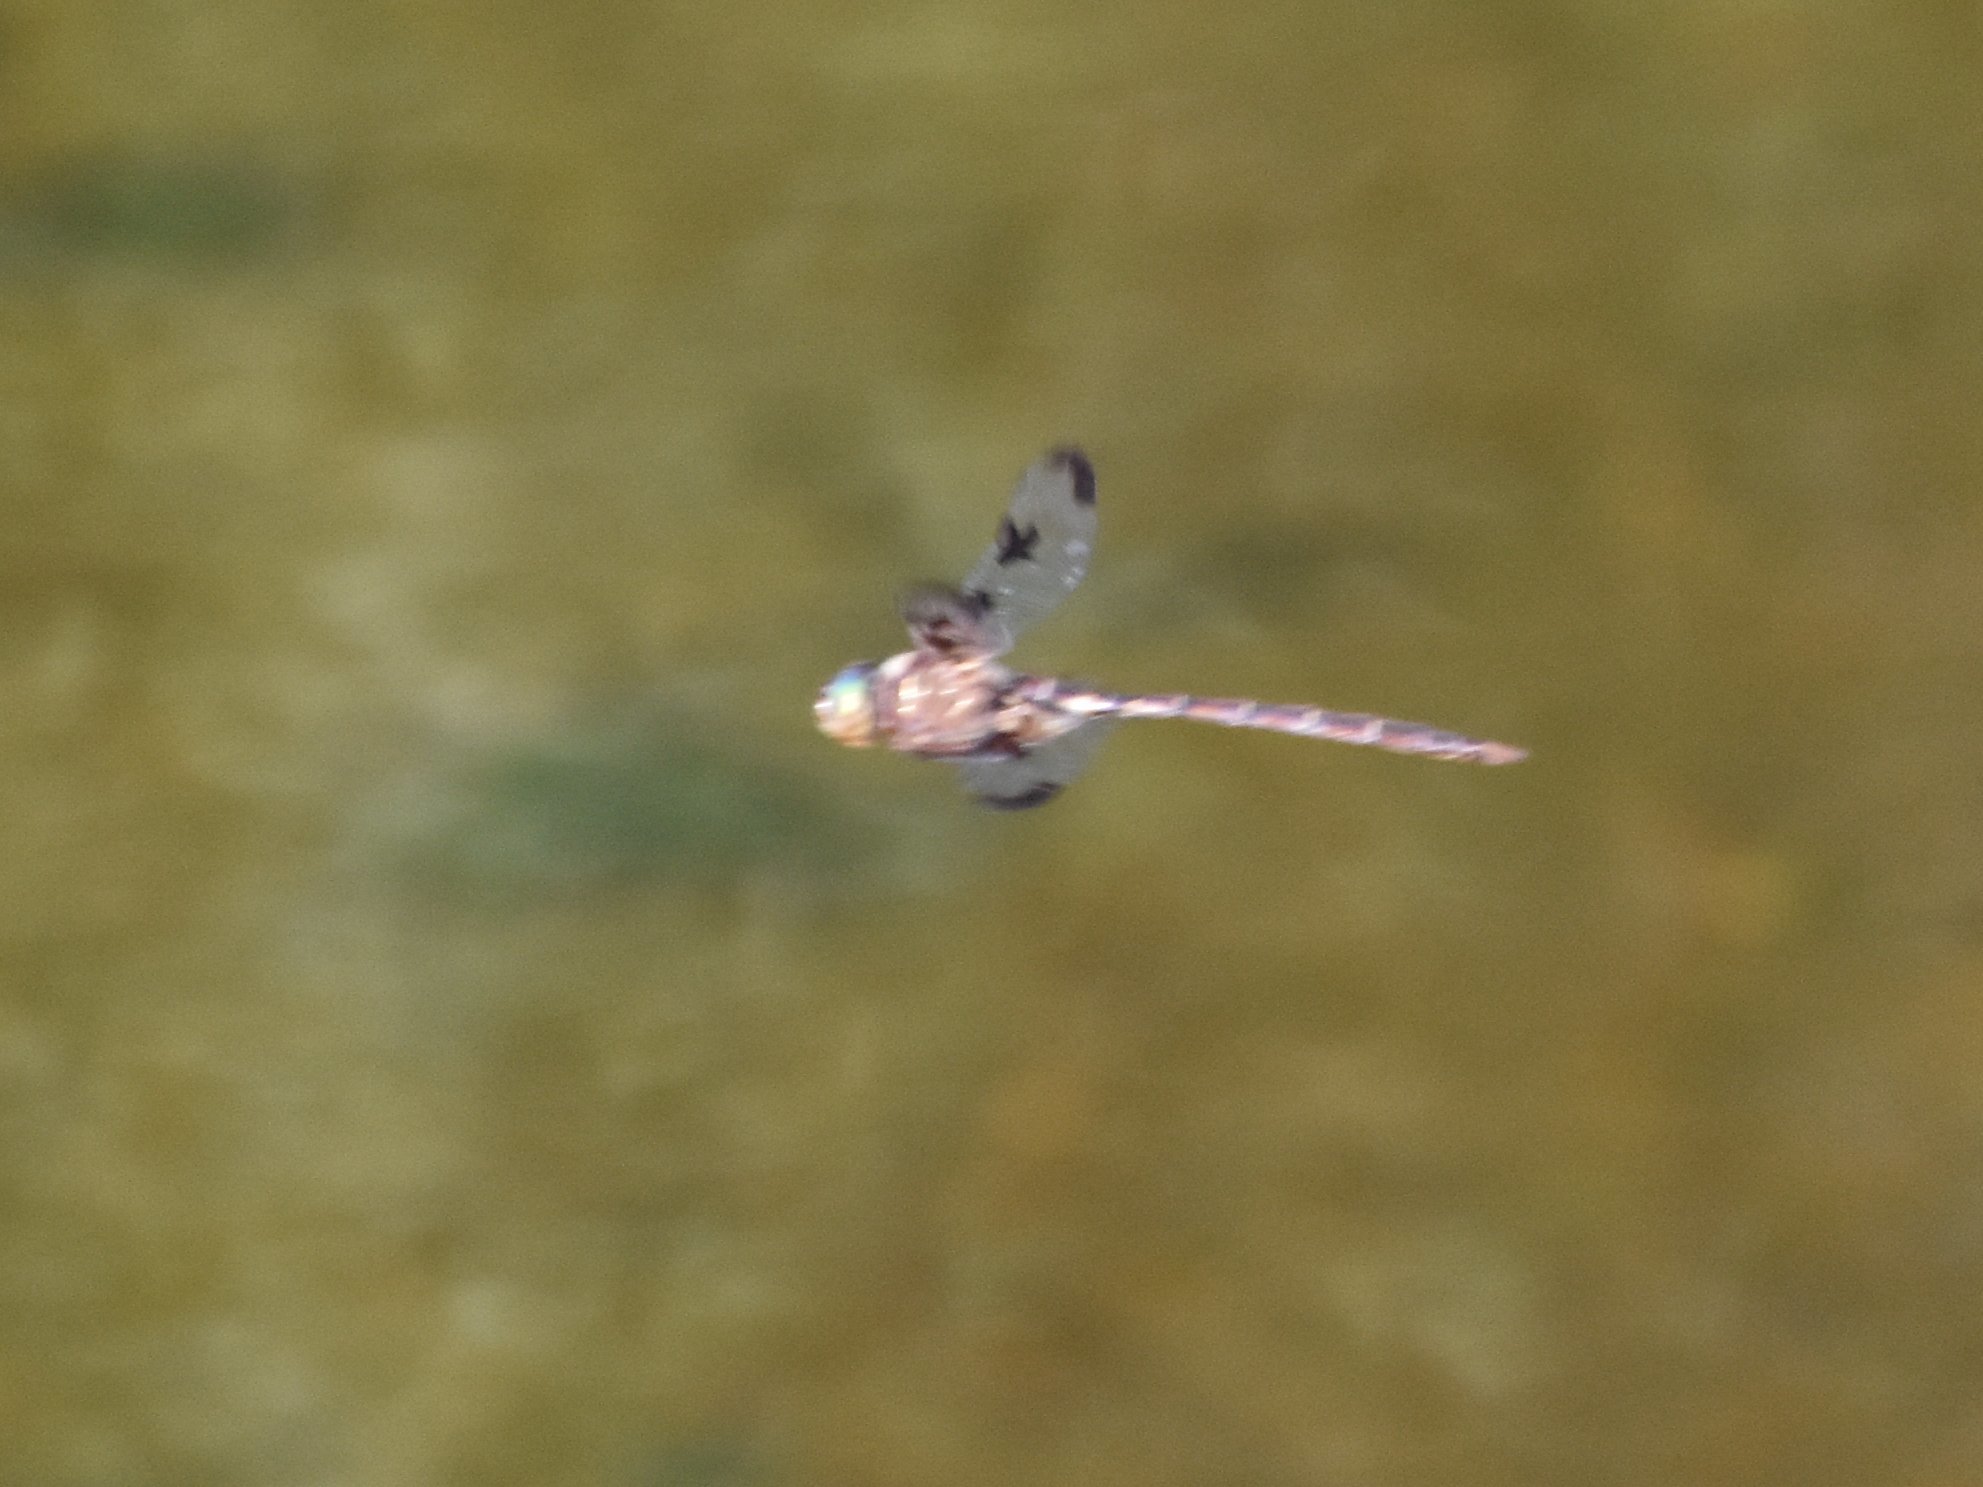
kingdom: Animalia
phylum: Arthropoda
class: Insecta
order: Odonata
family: Corduliidae
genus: Epitheca
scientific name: Epitheca princeps
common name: Prince baskettail
